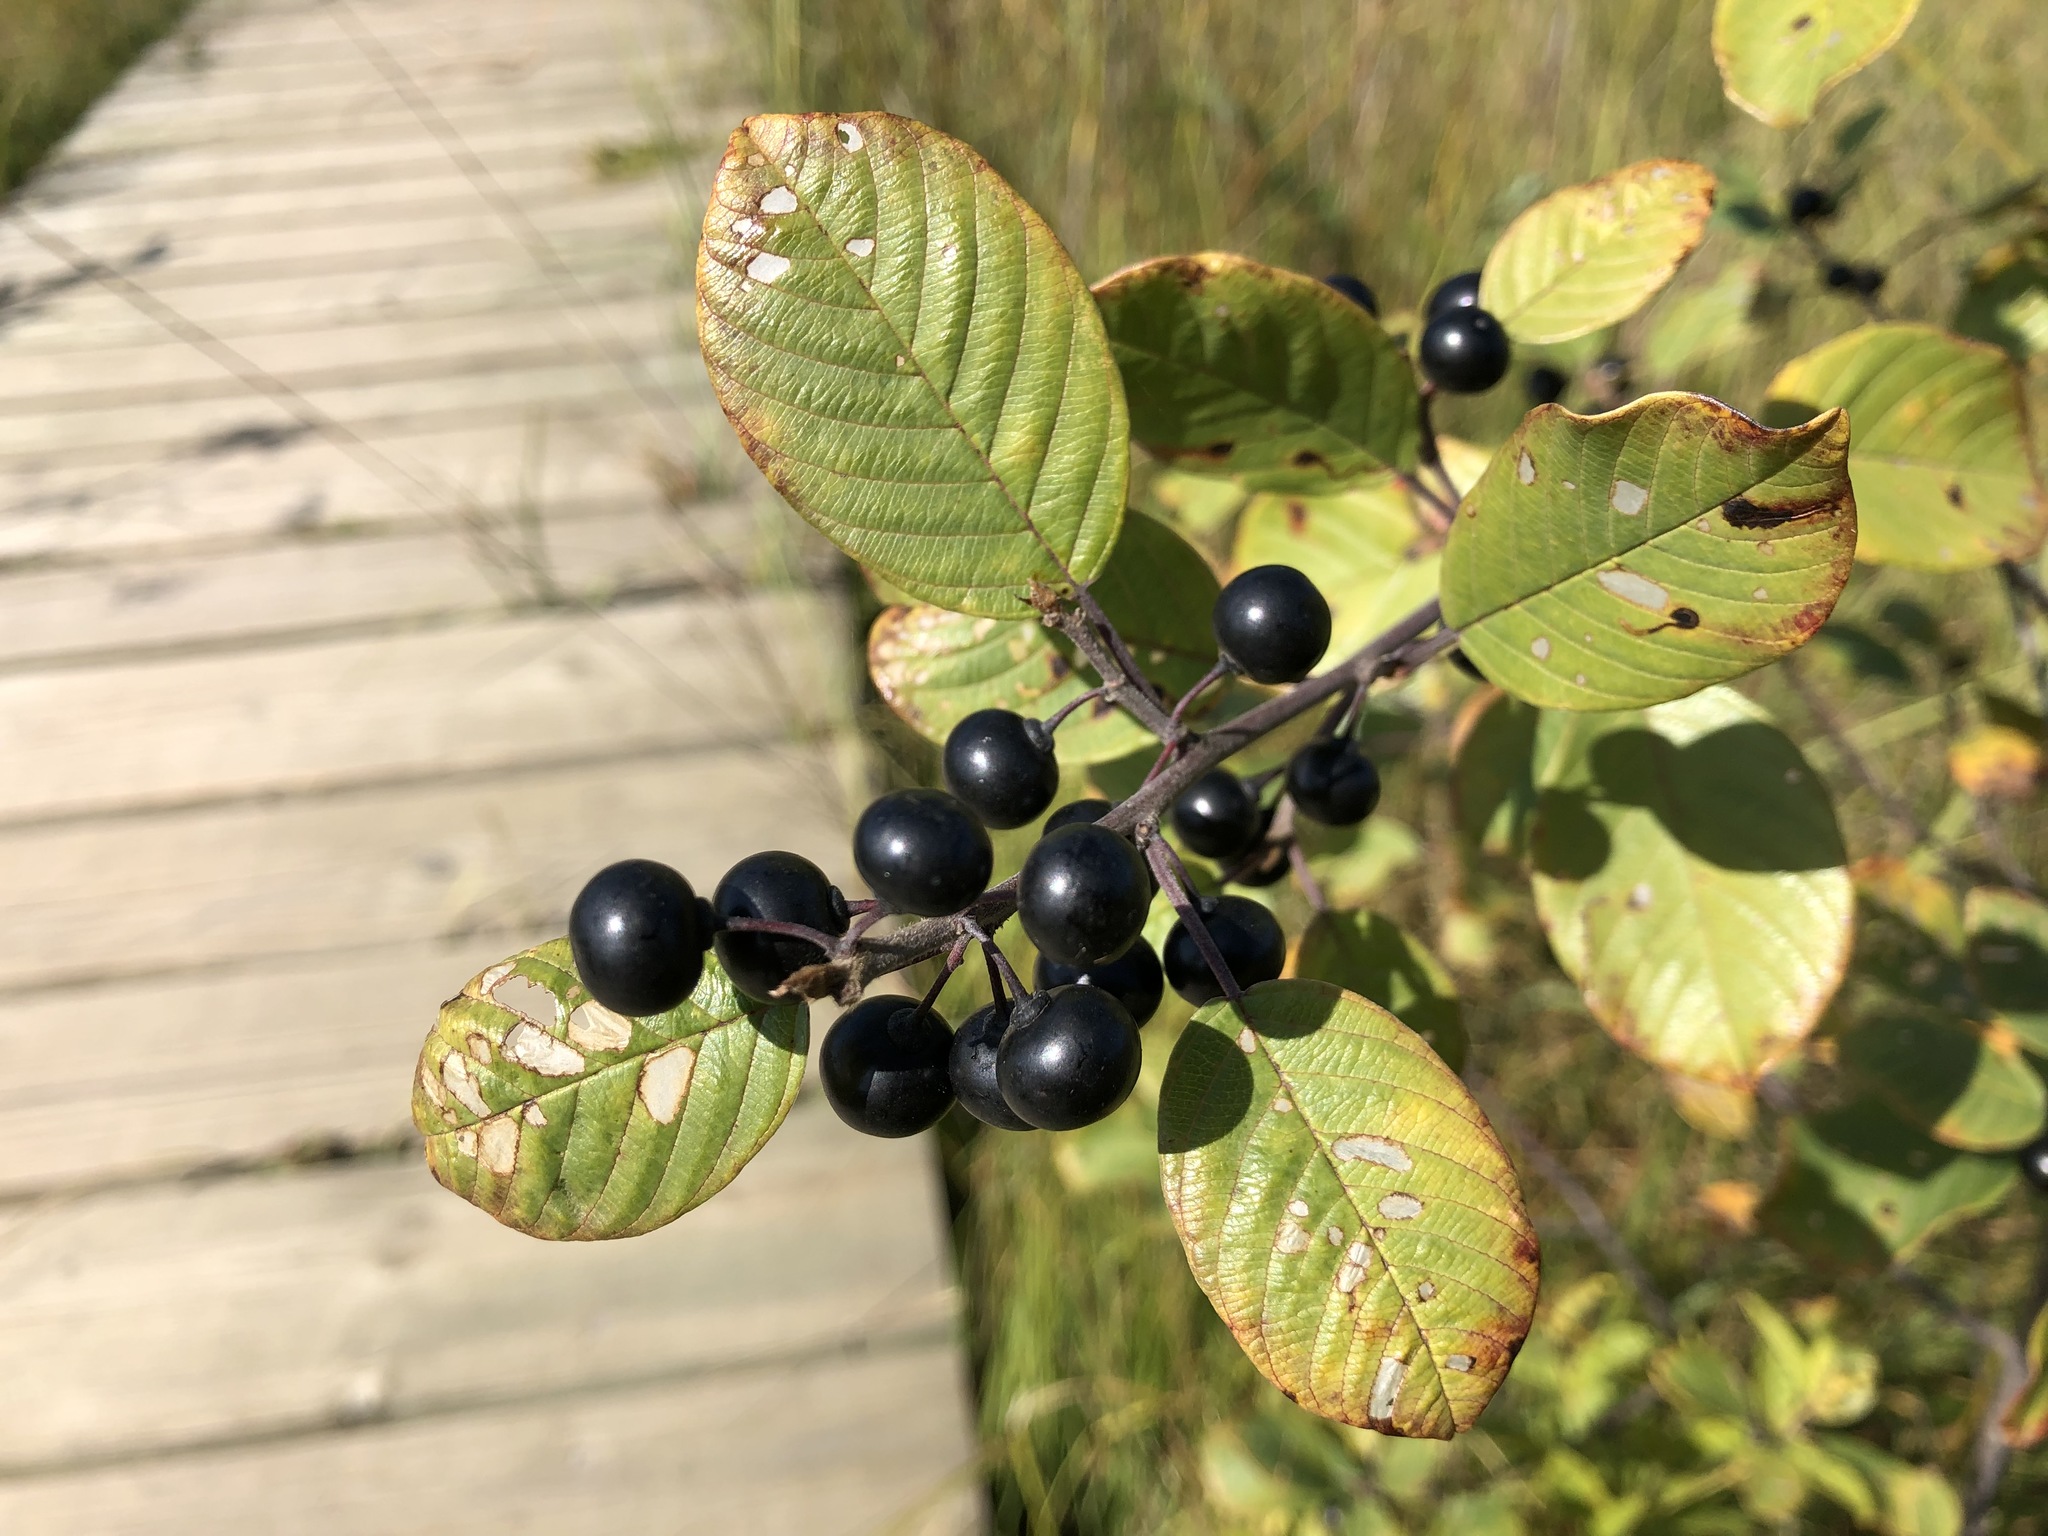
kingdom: Plantae
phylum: Tracheophyta
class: Magnoliopsida
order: Rosales
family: Rhamnaceae
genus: Frangula
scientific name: Frangula alnus
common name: Alder buckthorn
